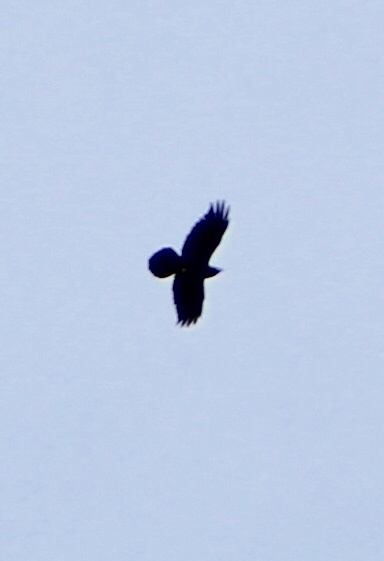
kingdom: Animalia
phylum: Chordata
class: Aves
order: Passeriformes
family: Corvidae
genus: Corvus
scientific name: Corvus corax
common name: Common raven
